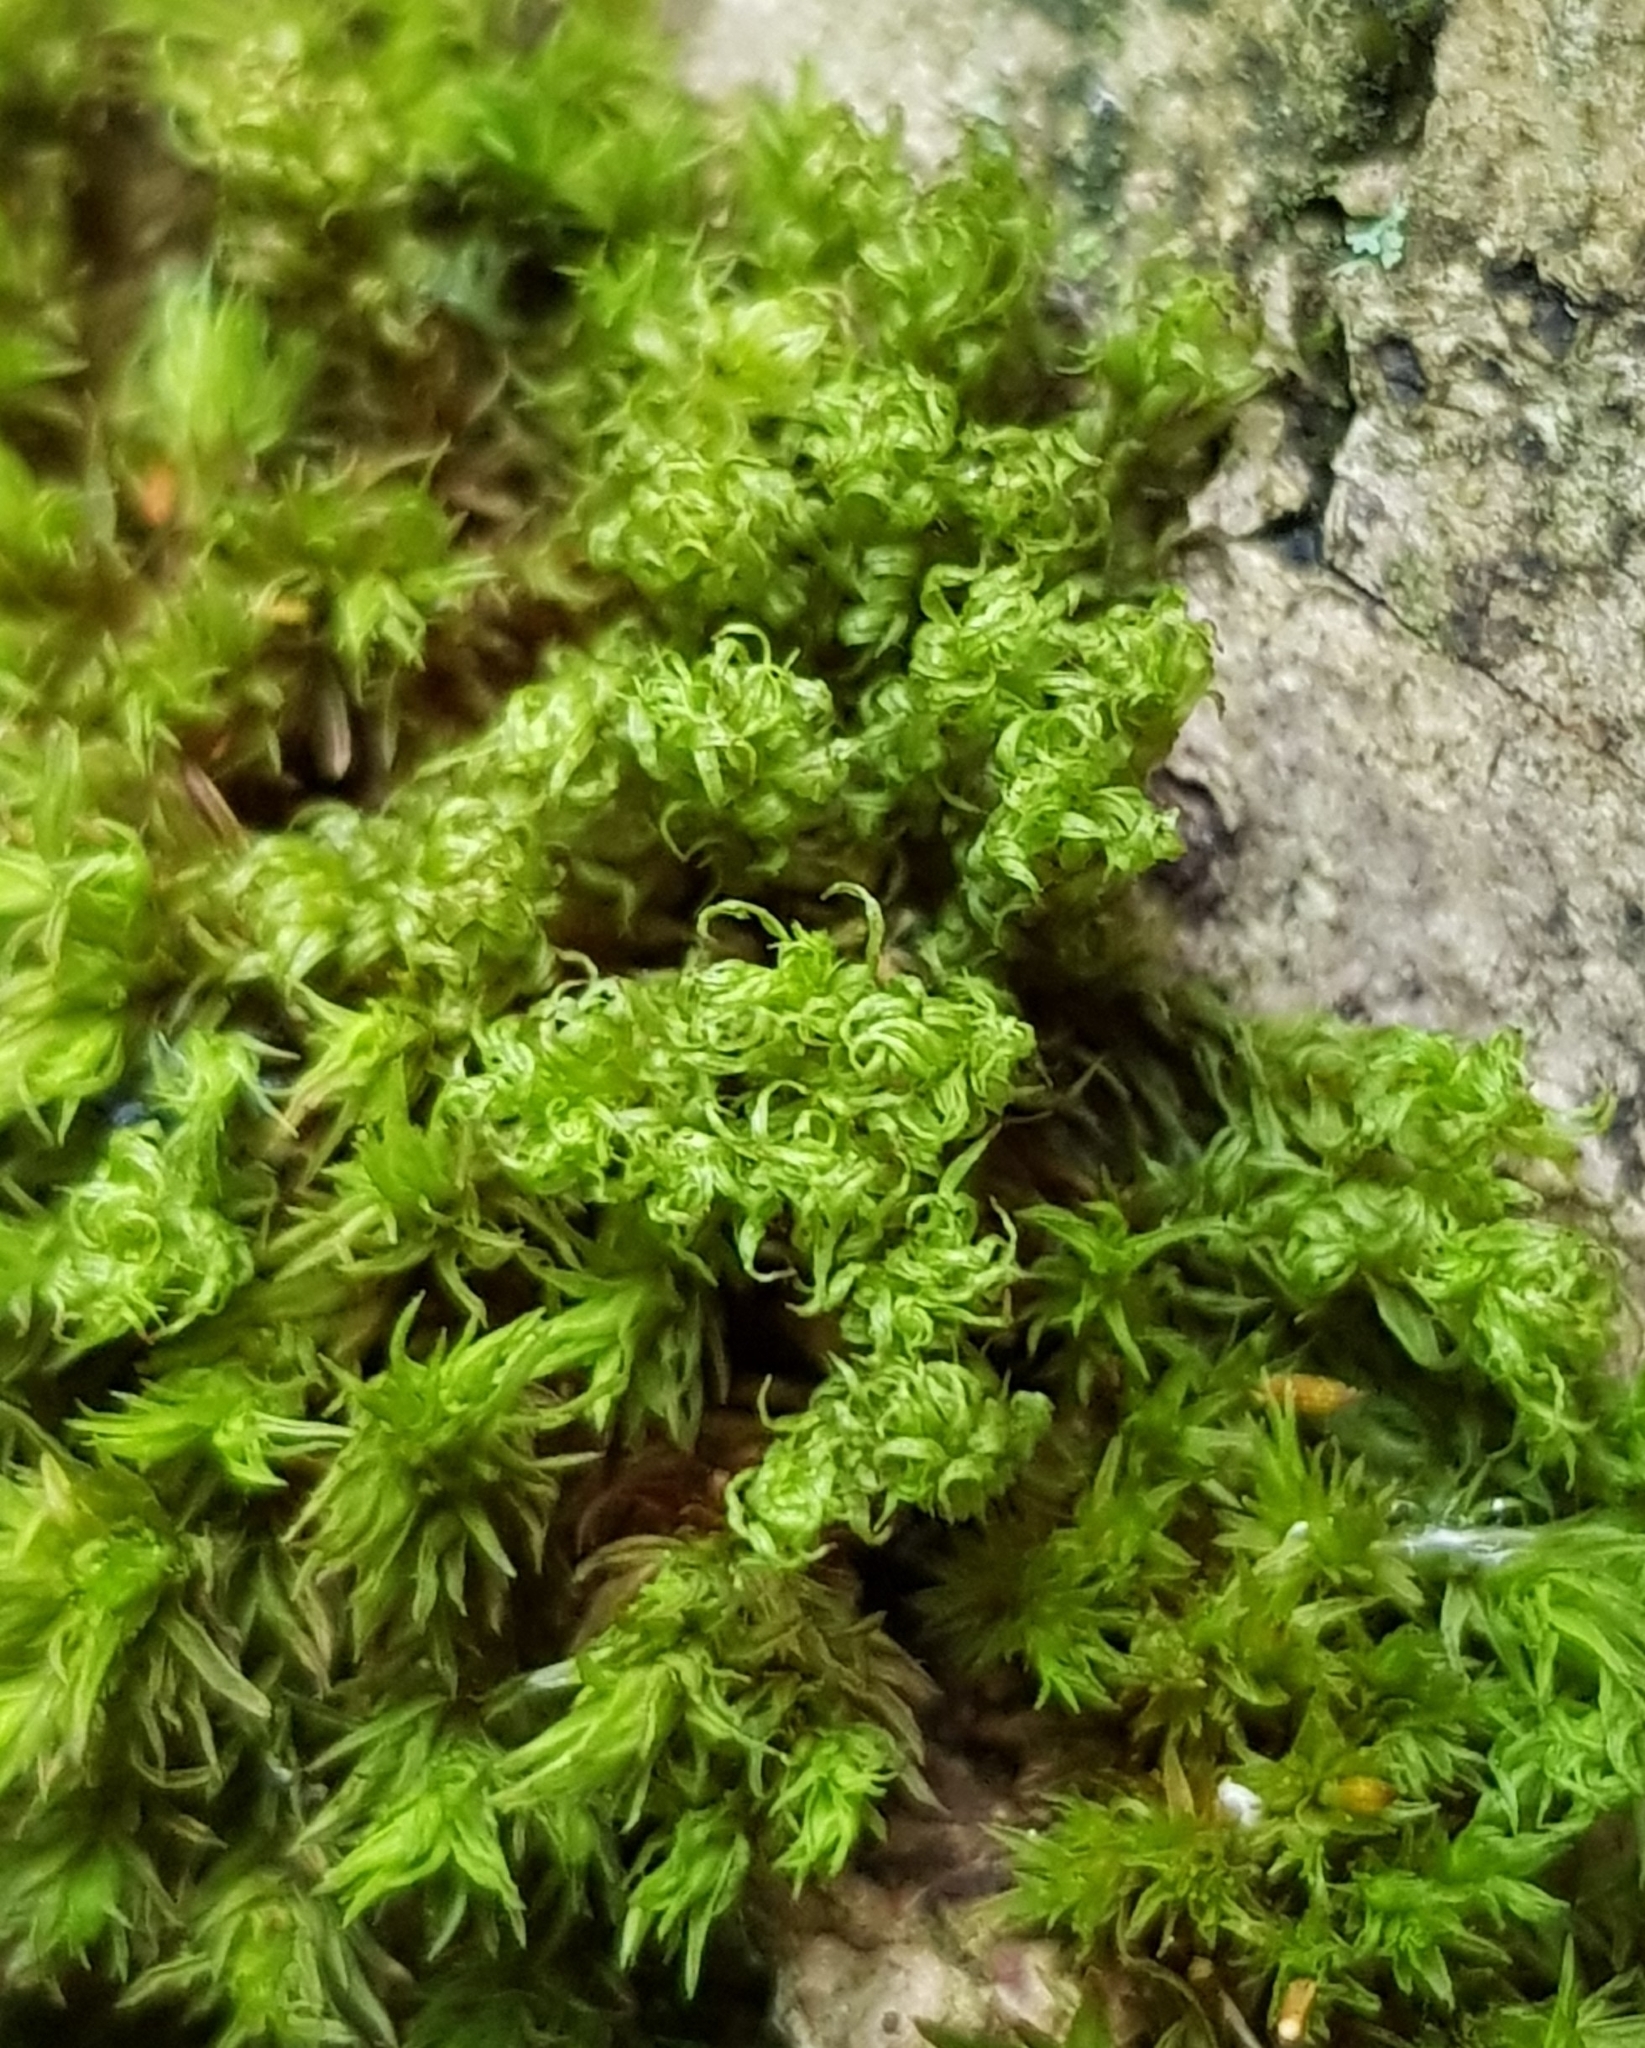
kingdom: Plantae
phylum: Bryophyta
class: Bryopsida
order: Orthotrichales
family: Orthotrichaceae
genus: Plenogemma
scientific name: Plenogemma phyllantha
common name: Frizzled pincushion
